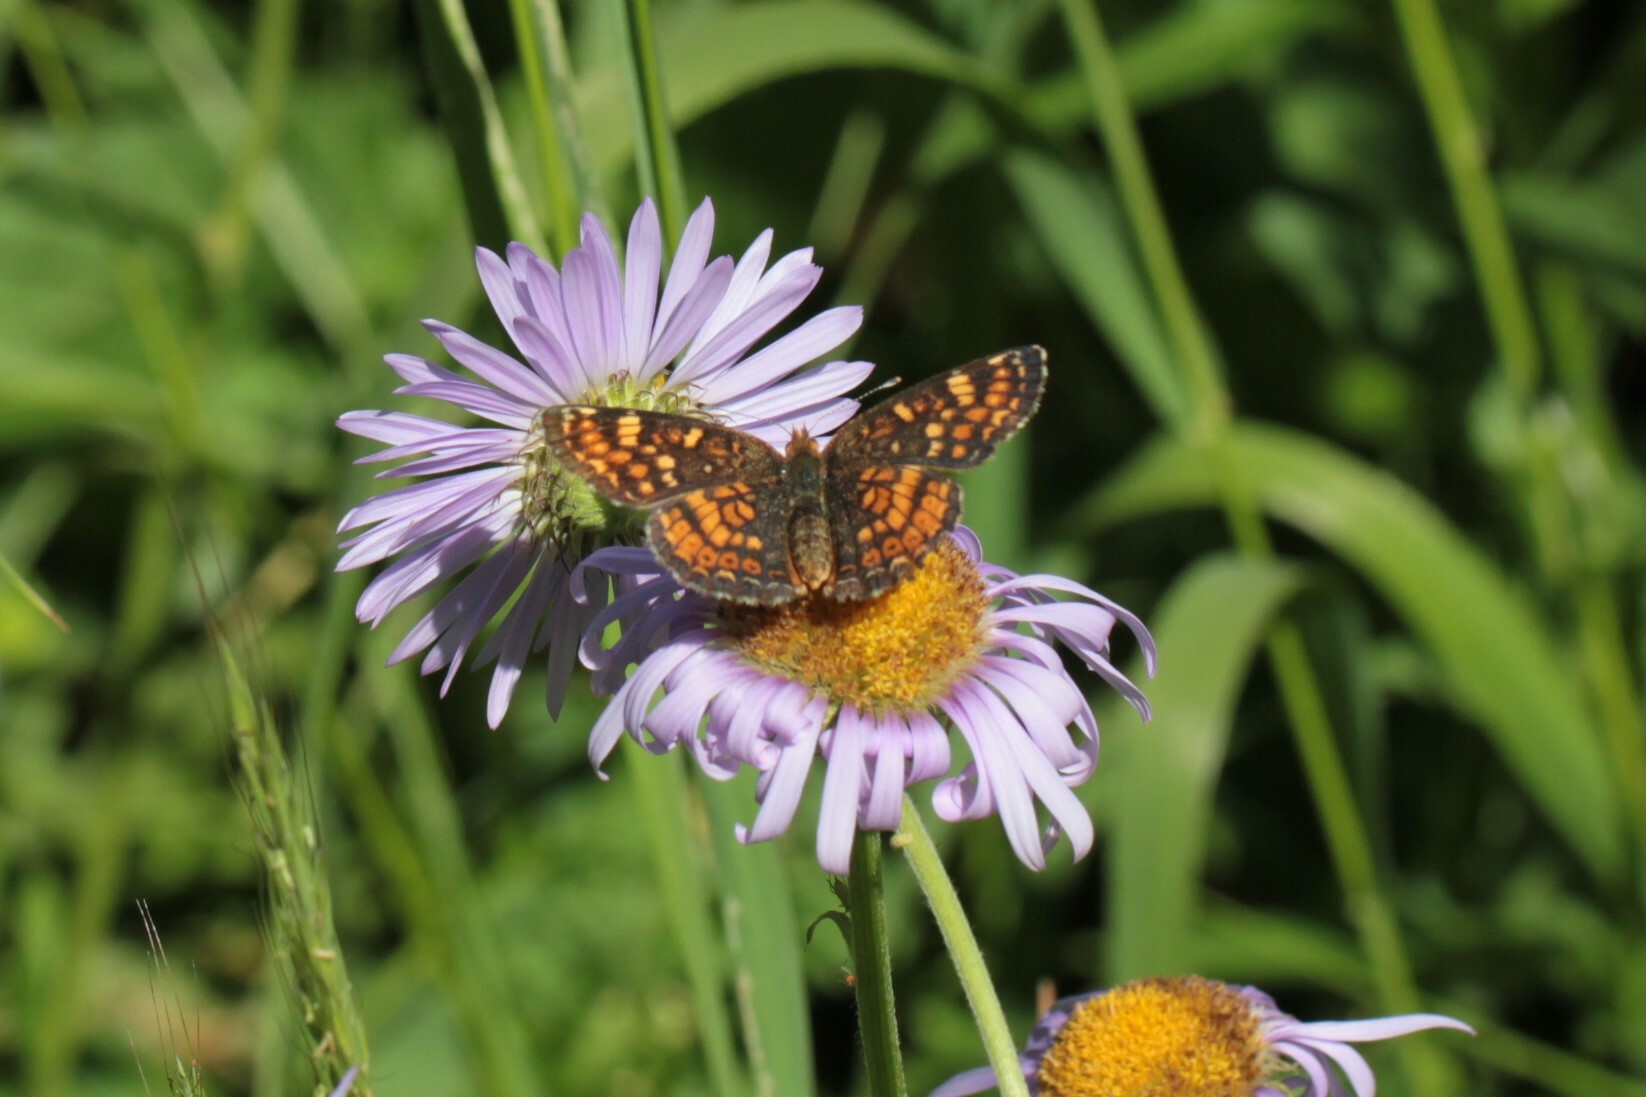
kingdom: Animalia
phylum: Arthropoda
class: Insecta
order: Lepidoptera
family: Nymphalidae
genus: Phyciodes
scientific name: Phyciodes tharos
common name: Pearl crescent
